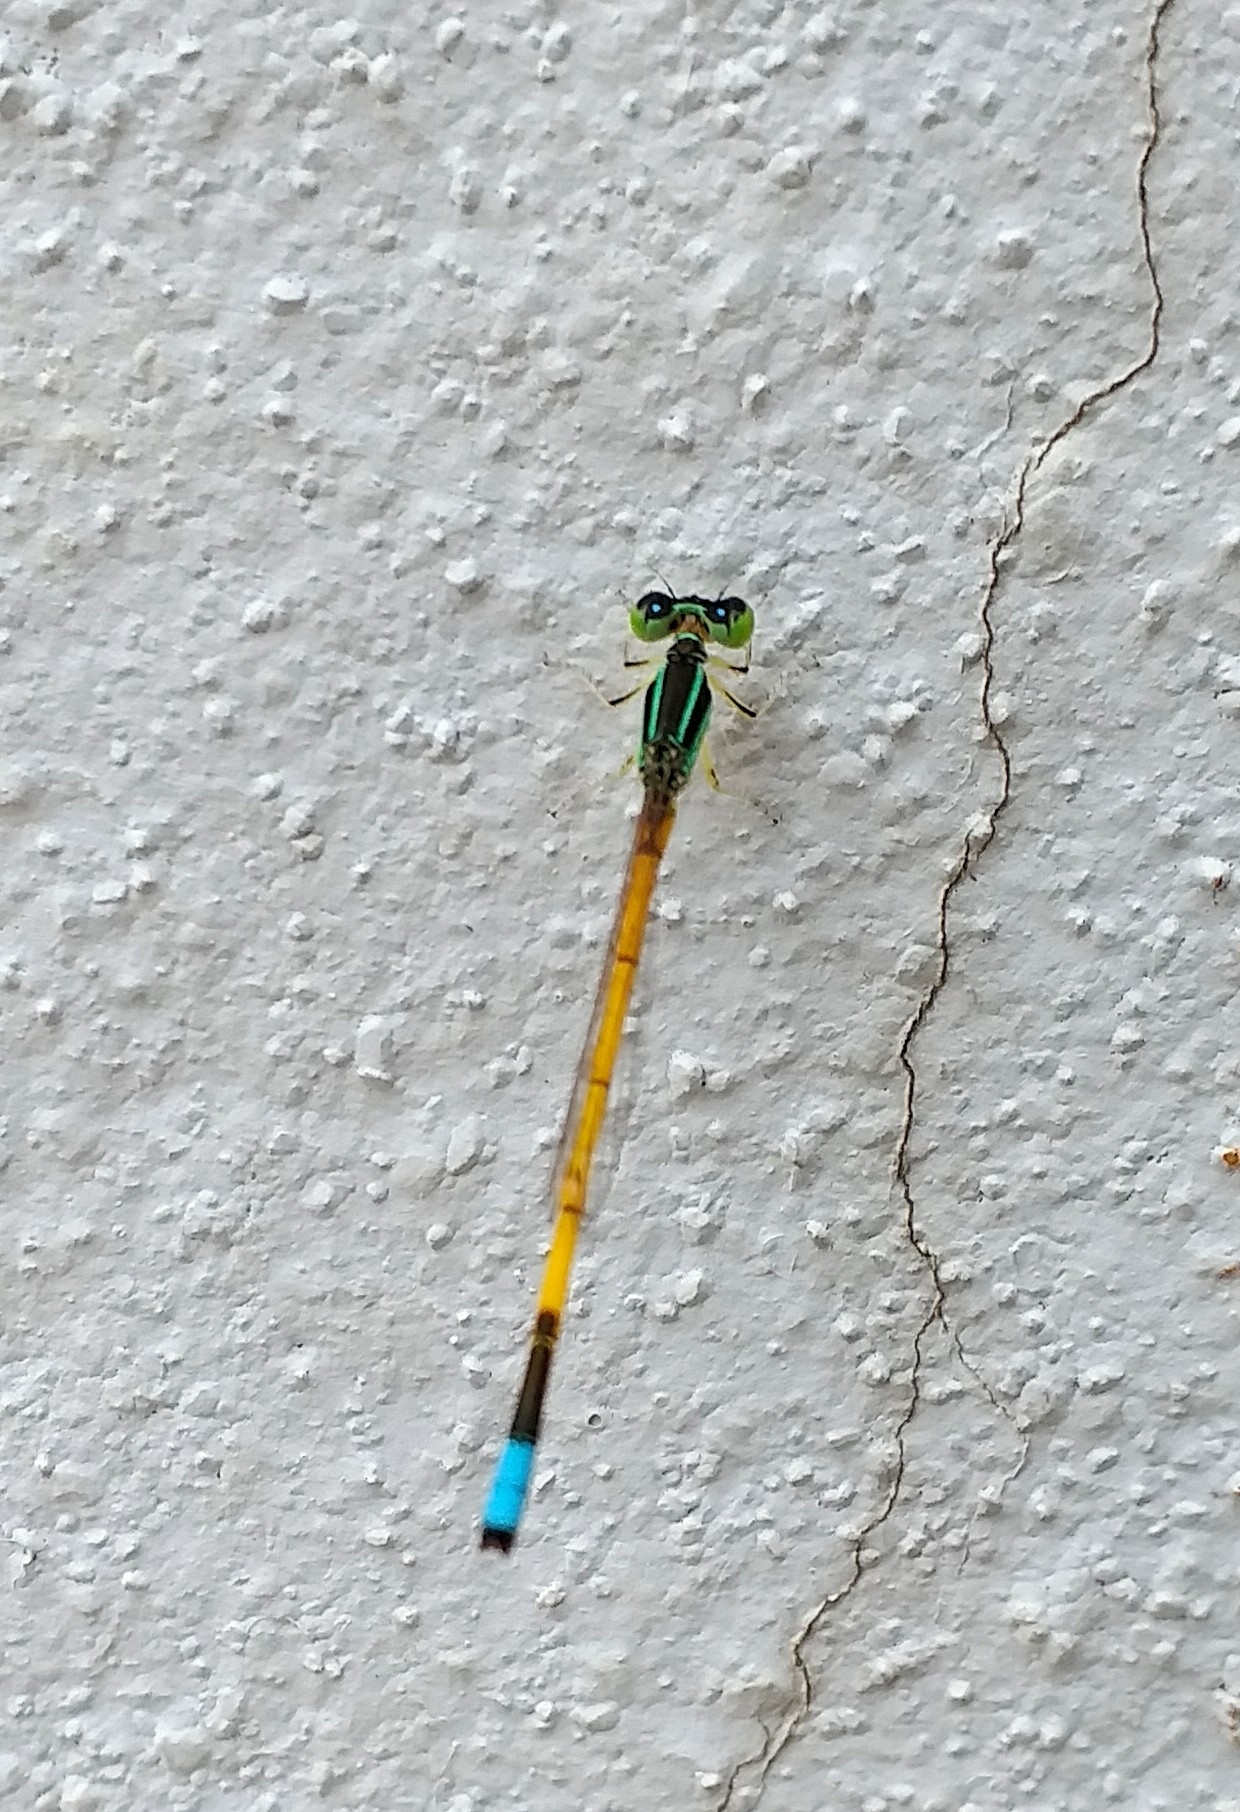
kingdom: Animalia
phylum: Arthropoda
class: Insecta
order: Odonata
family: Coenagrionidae
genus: Ischnura
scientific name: Ischnura rubilio
